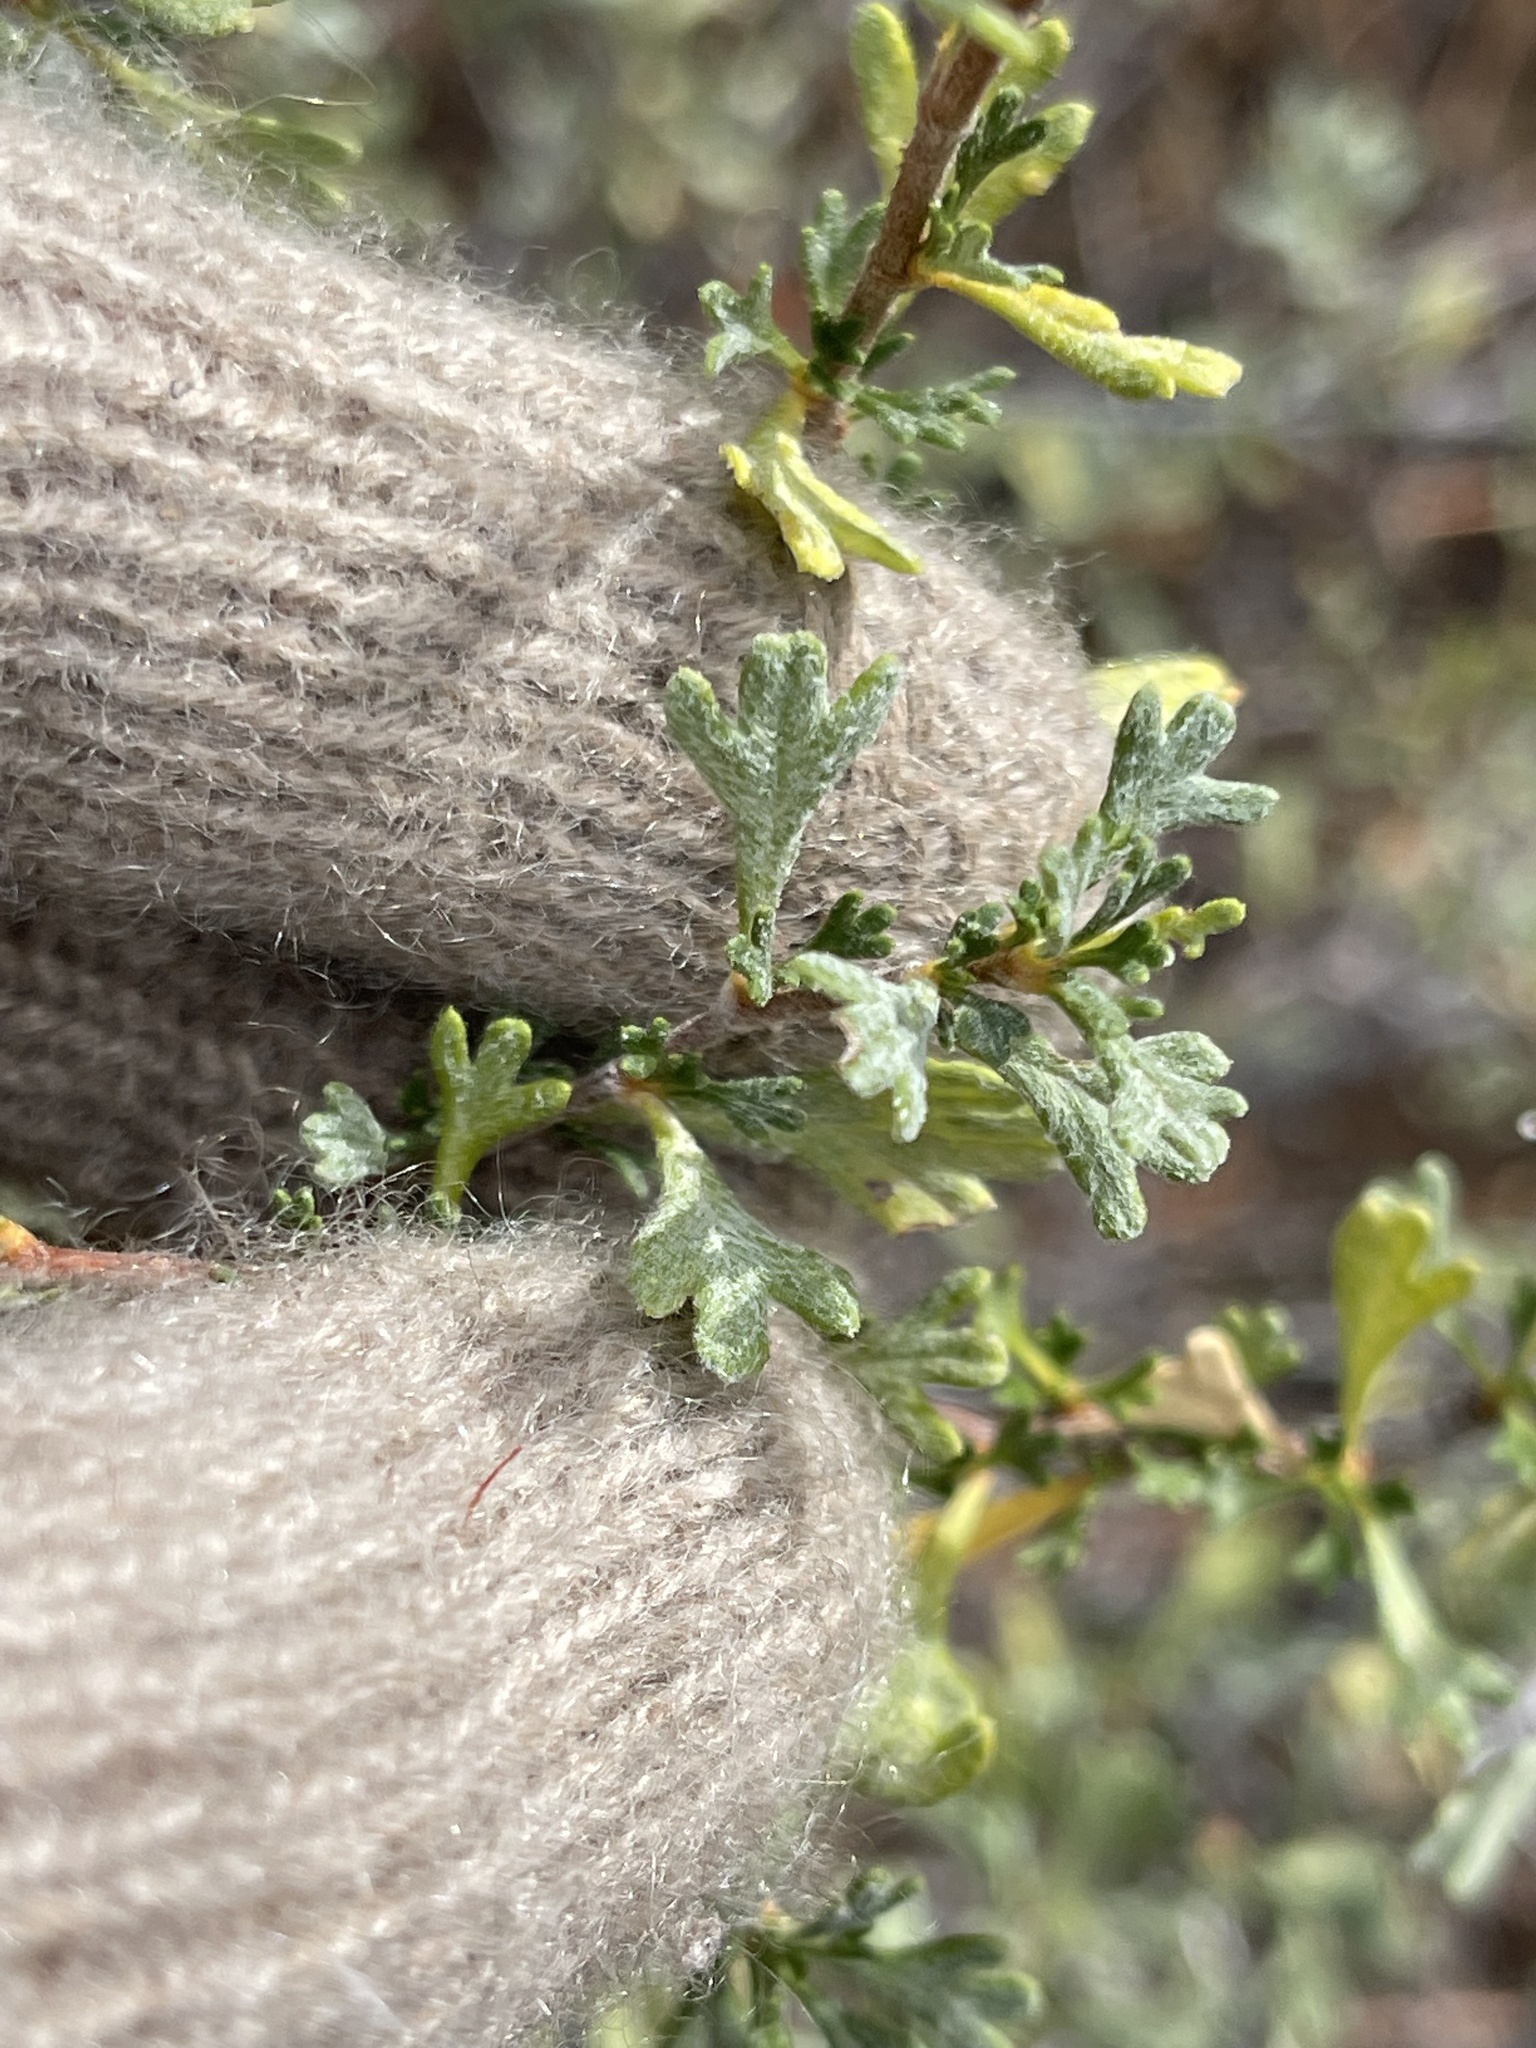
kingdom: Plantae
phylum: Tracheophyta
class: Magnoliopsida
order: Rosales
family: Rosaceae
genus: Purshia
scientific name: Purshia tridentata
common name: Antelope bitterbrush
